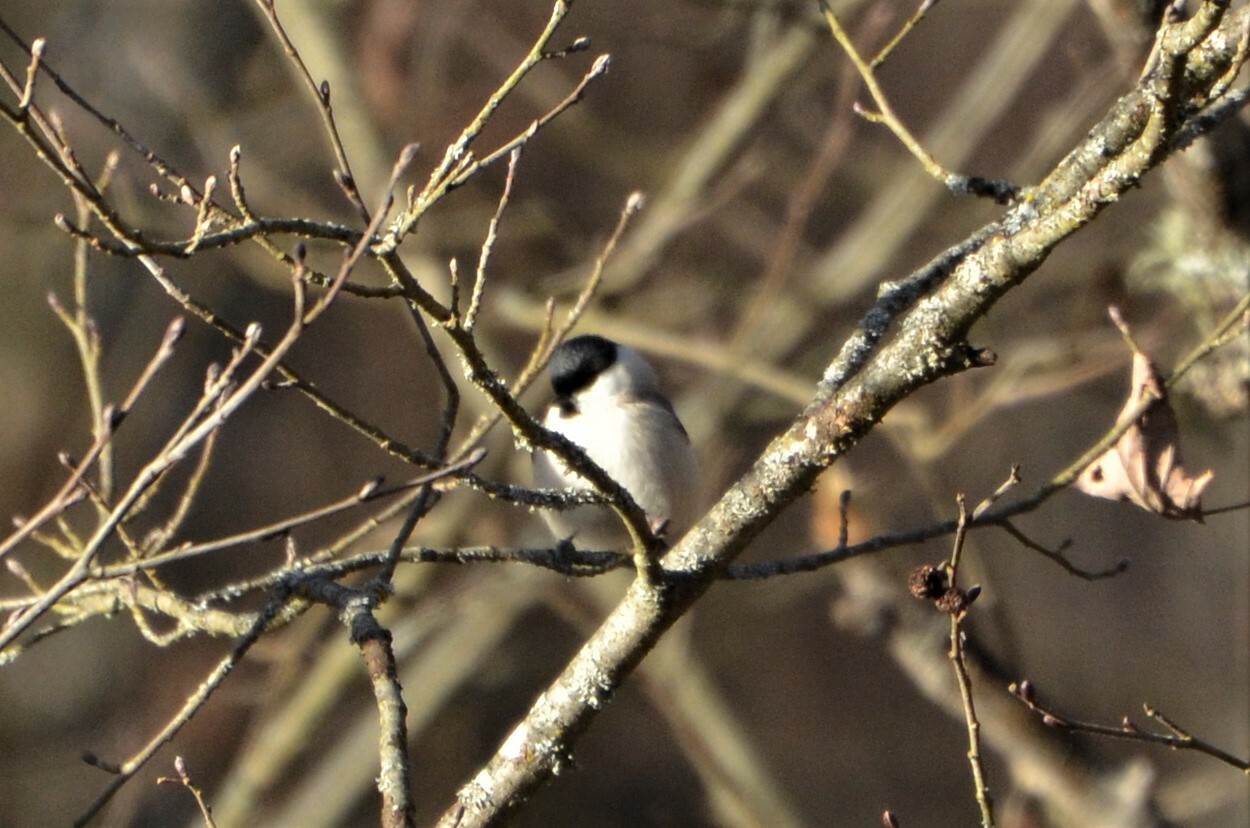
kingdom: Animalia
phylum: Chordata
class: Aves
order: Passeriformes
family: Paridae
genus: Poecile
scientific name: Poecile palustris
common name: Marsh tit
